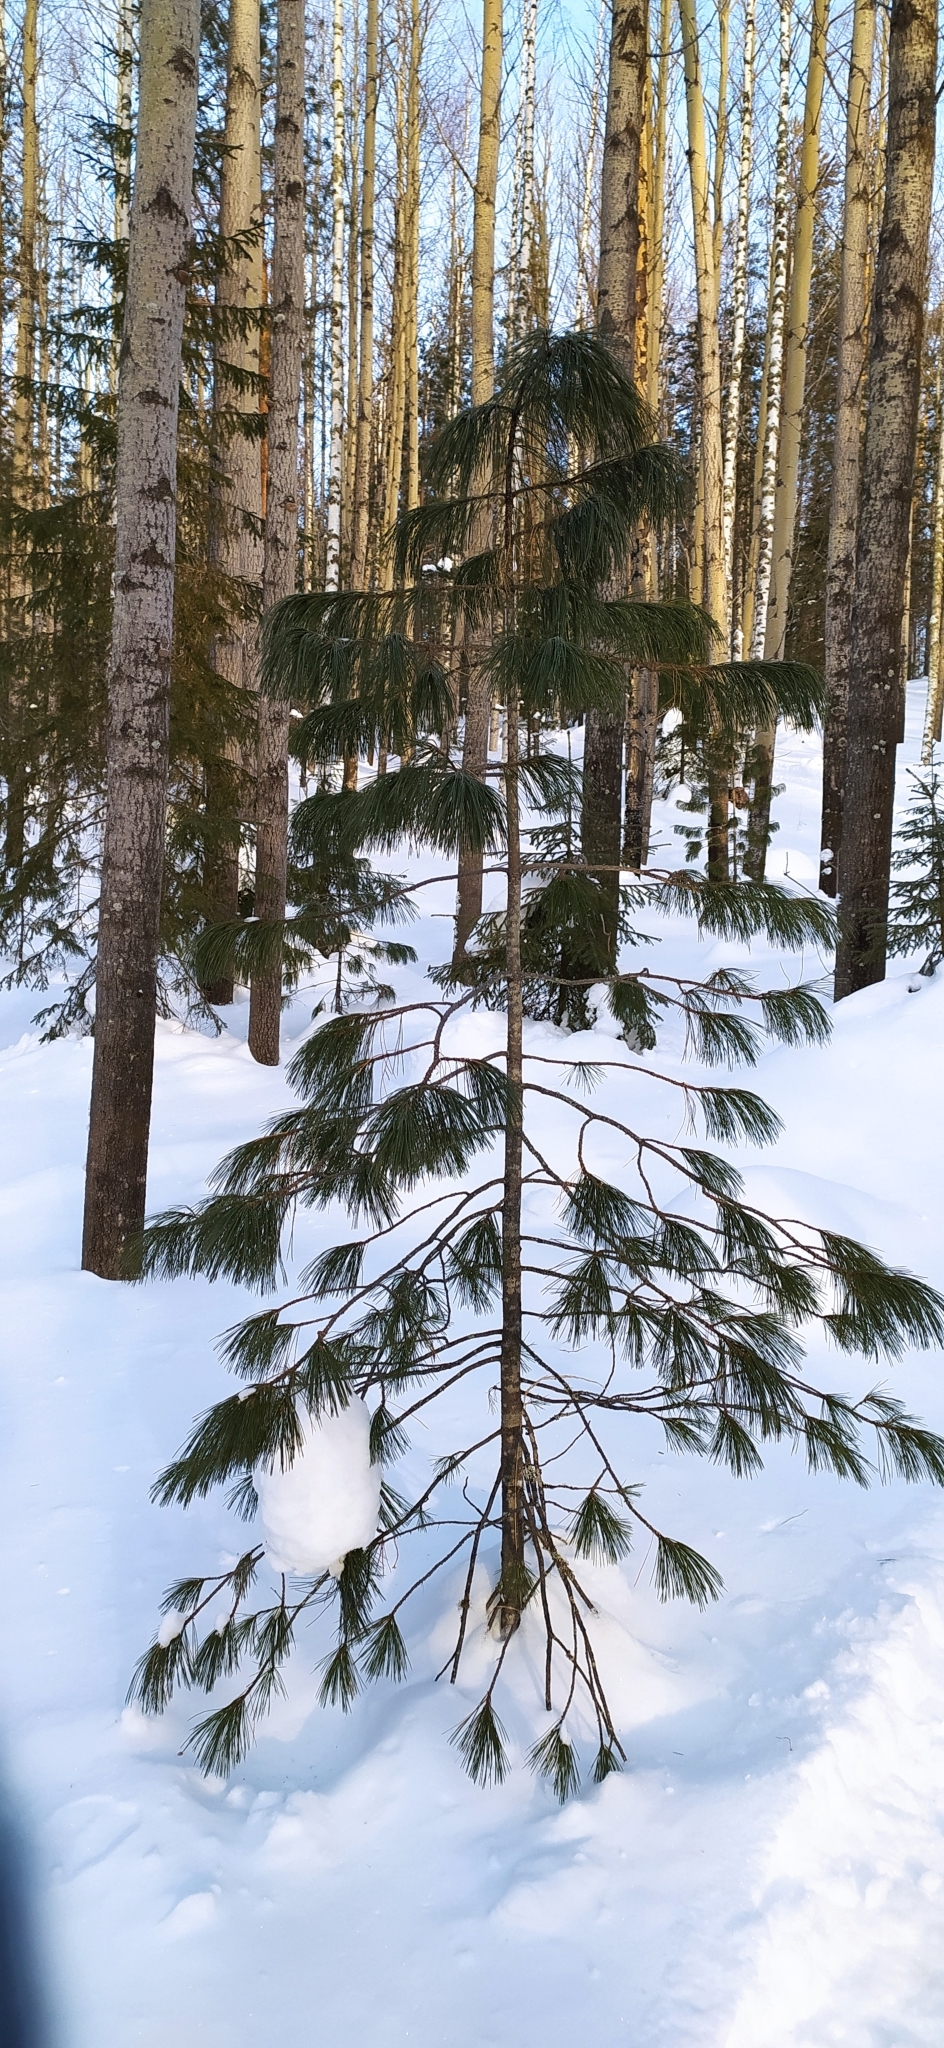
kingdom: Plantae
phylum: Tracheophyta
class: Pinopsida
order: Pinales
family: Pinaceae
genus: Pinus
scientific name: Pinus sibirica
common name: Siberian pine
